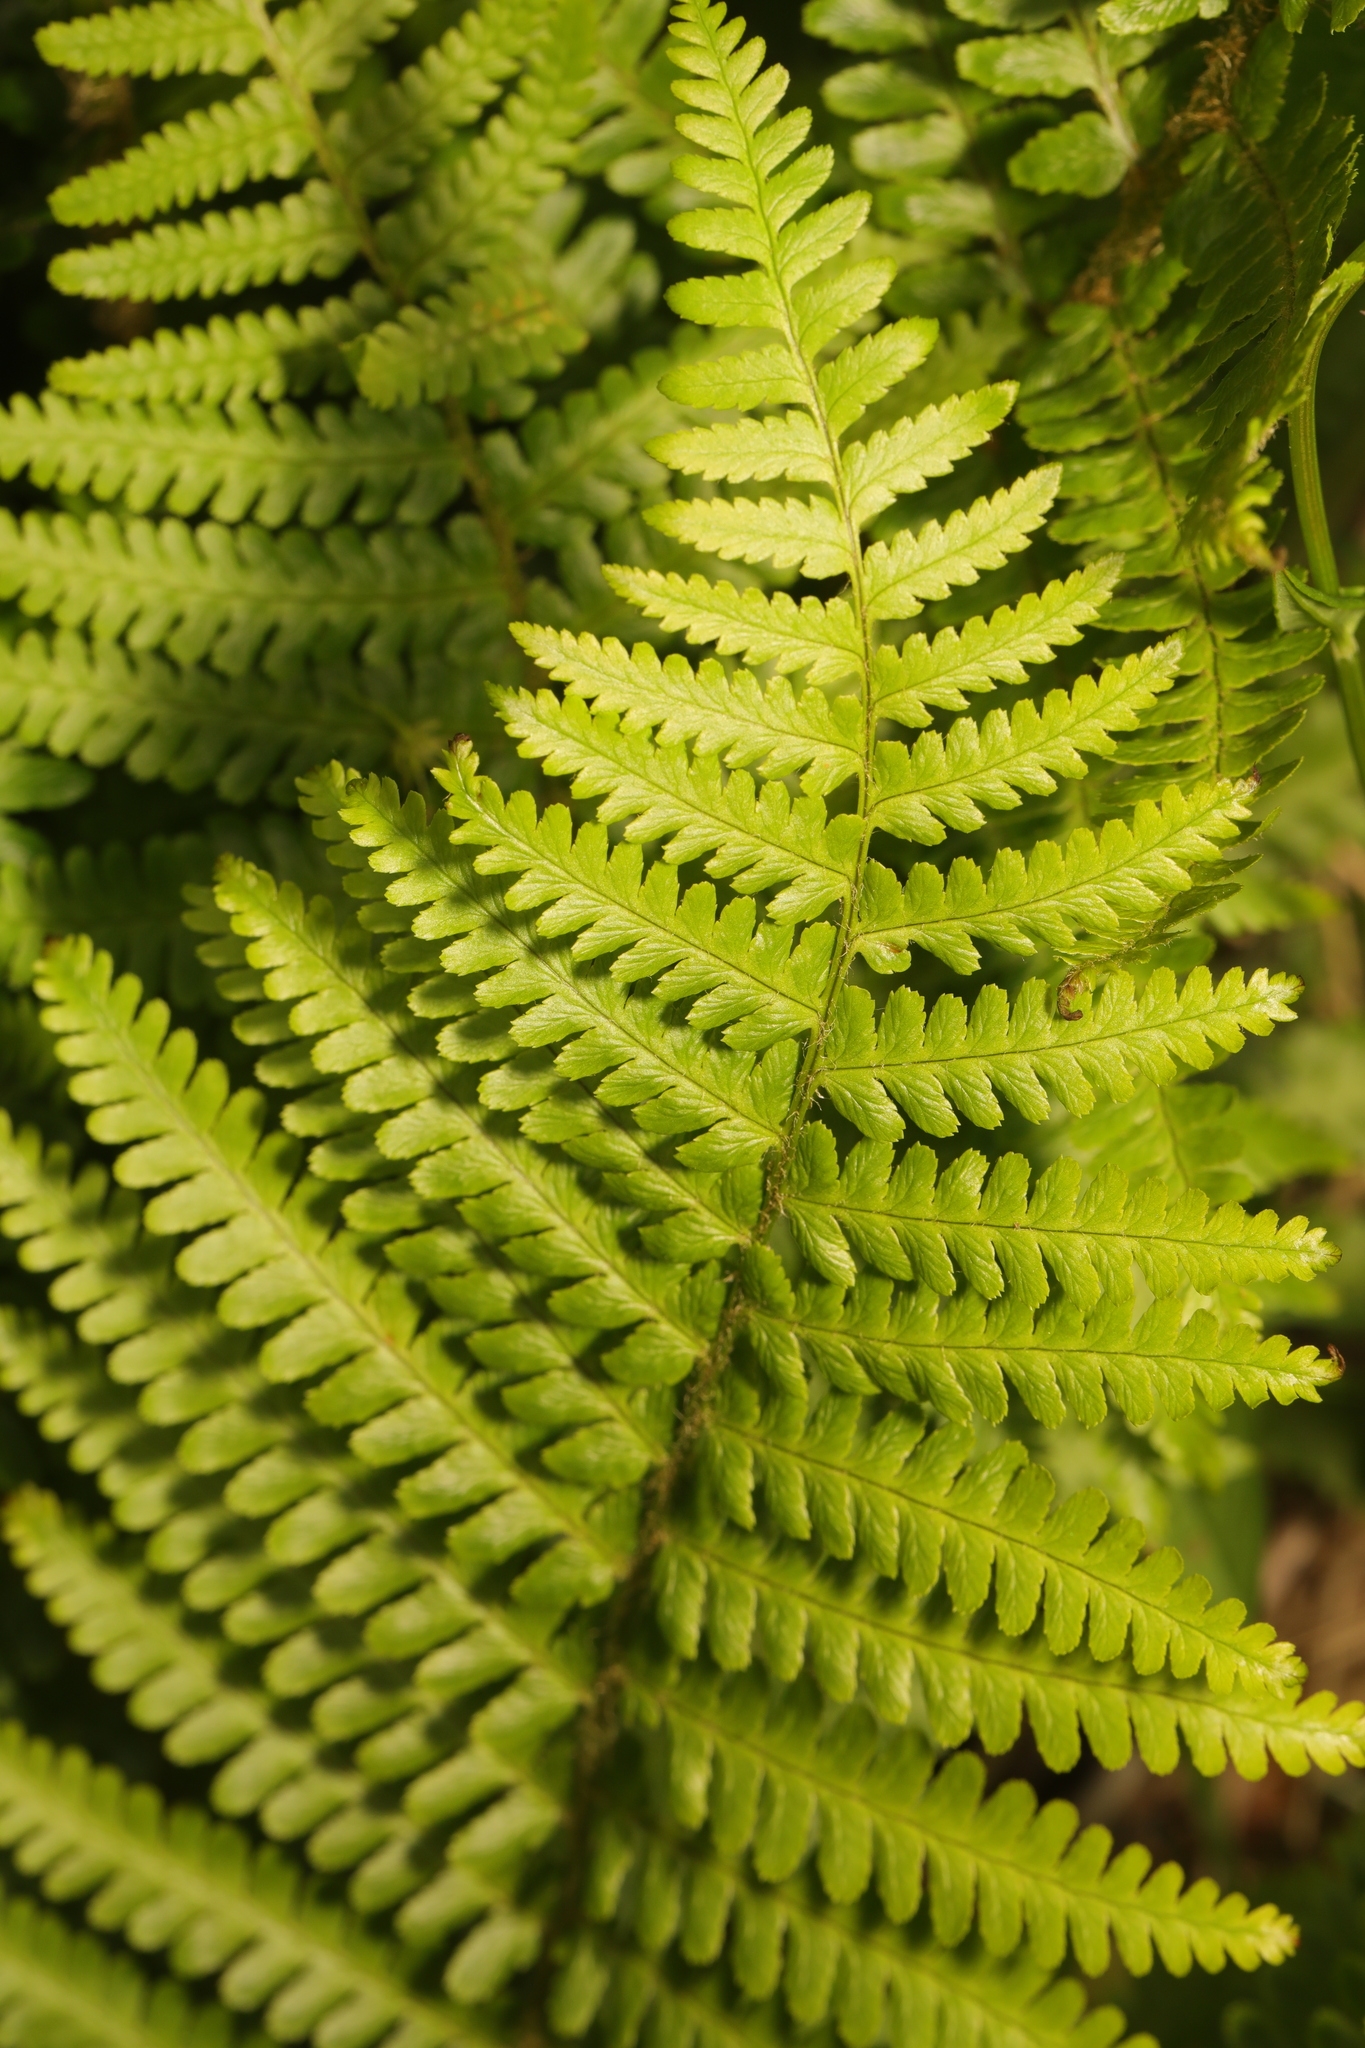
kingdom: Plantae
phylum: Tracheophyta
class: Polypodiopsida
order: Polypodiales
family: Dryopteridaceae
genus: Dryopteris
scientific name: Dryopteris filix-mas
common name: Male fern
